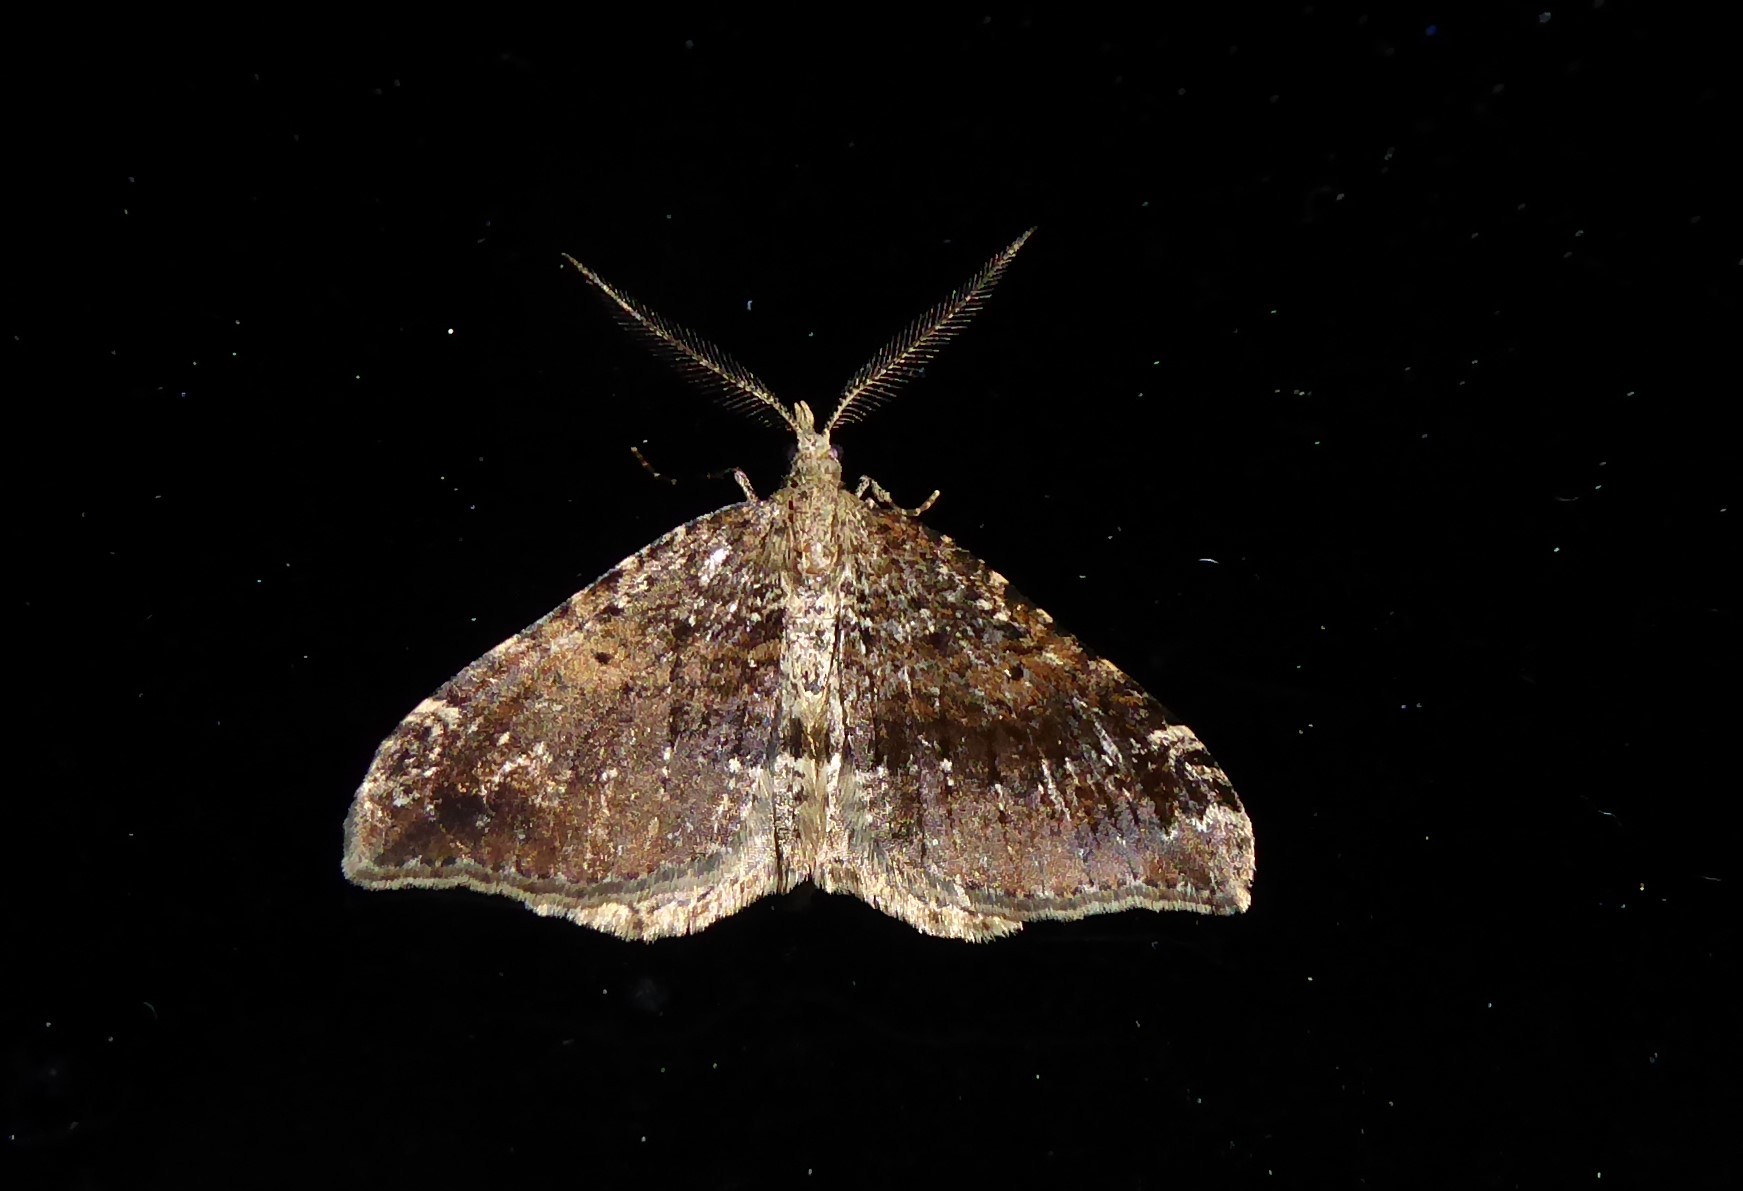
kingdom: Animalia
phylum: Arthropoda
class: Insecta
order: Lepidoptera
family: Geometridae
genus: Homodotis
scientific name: Homodotis megaspilata
